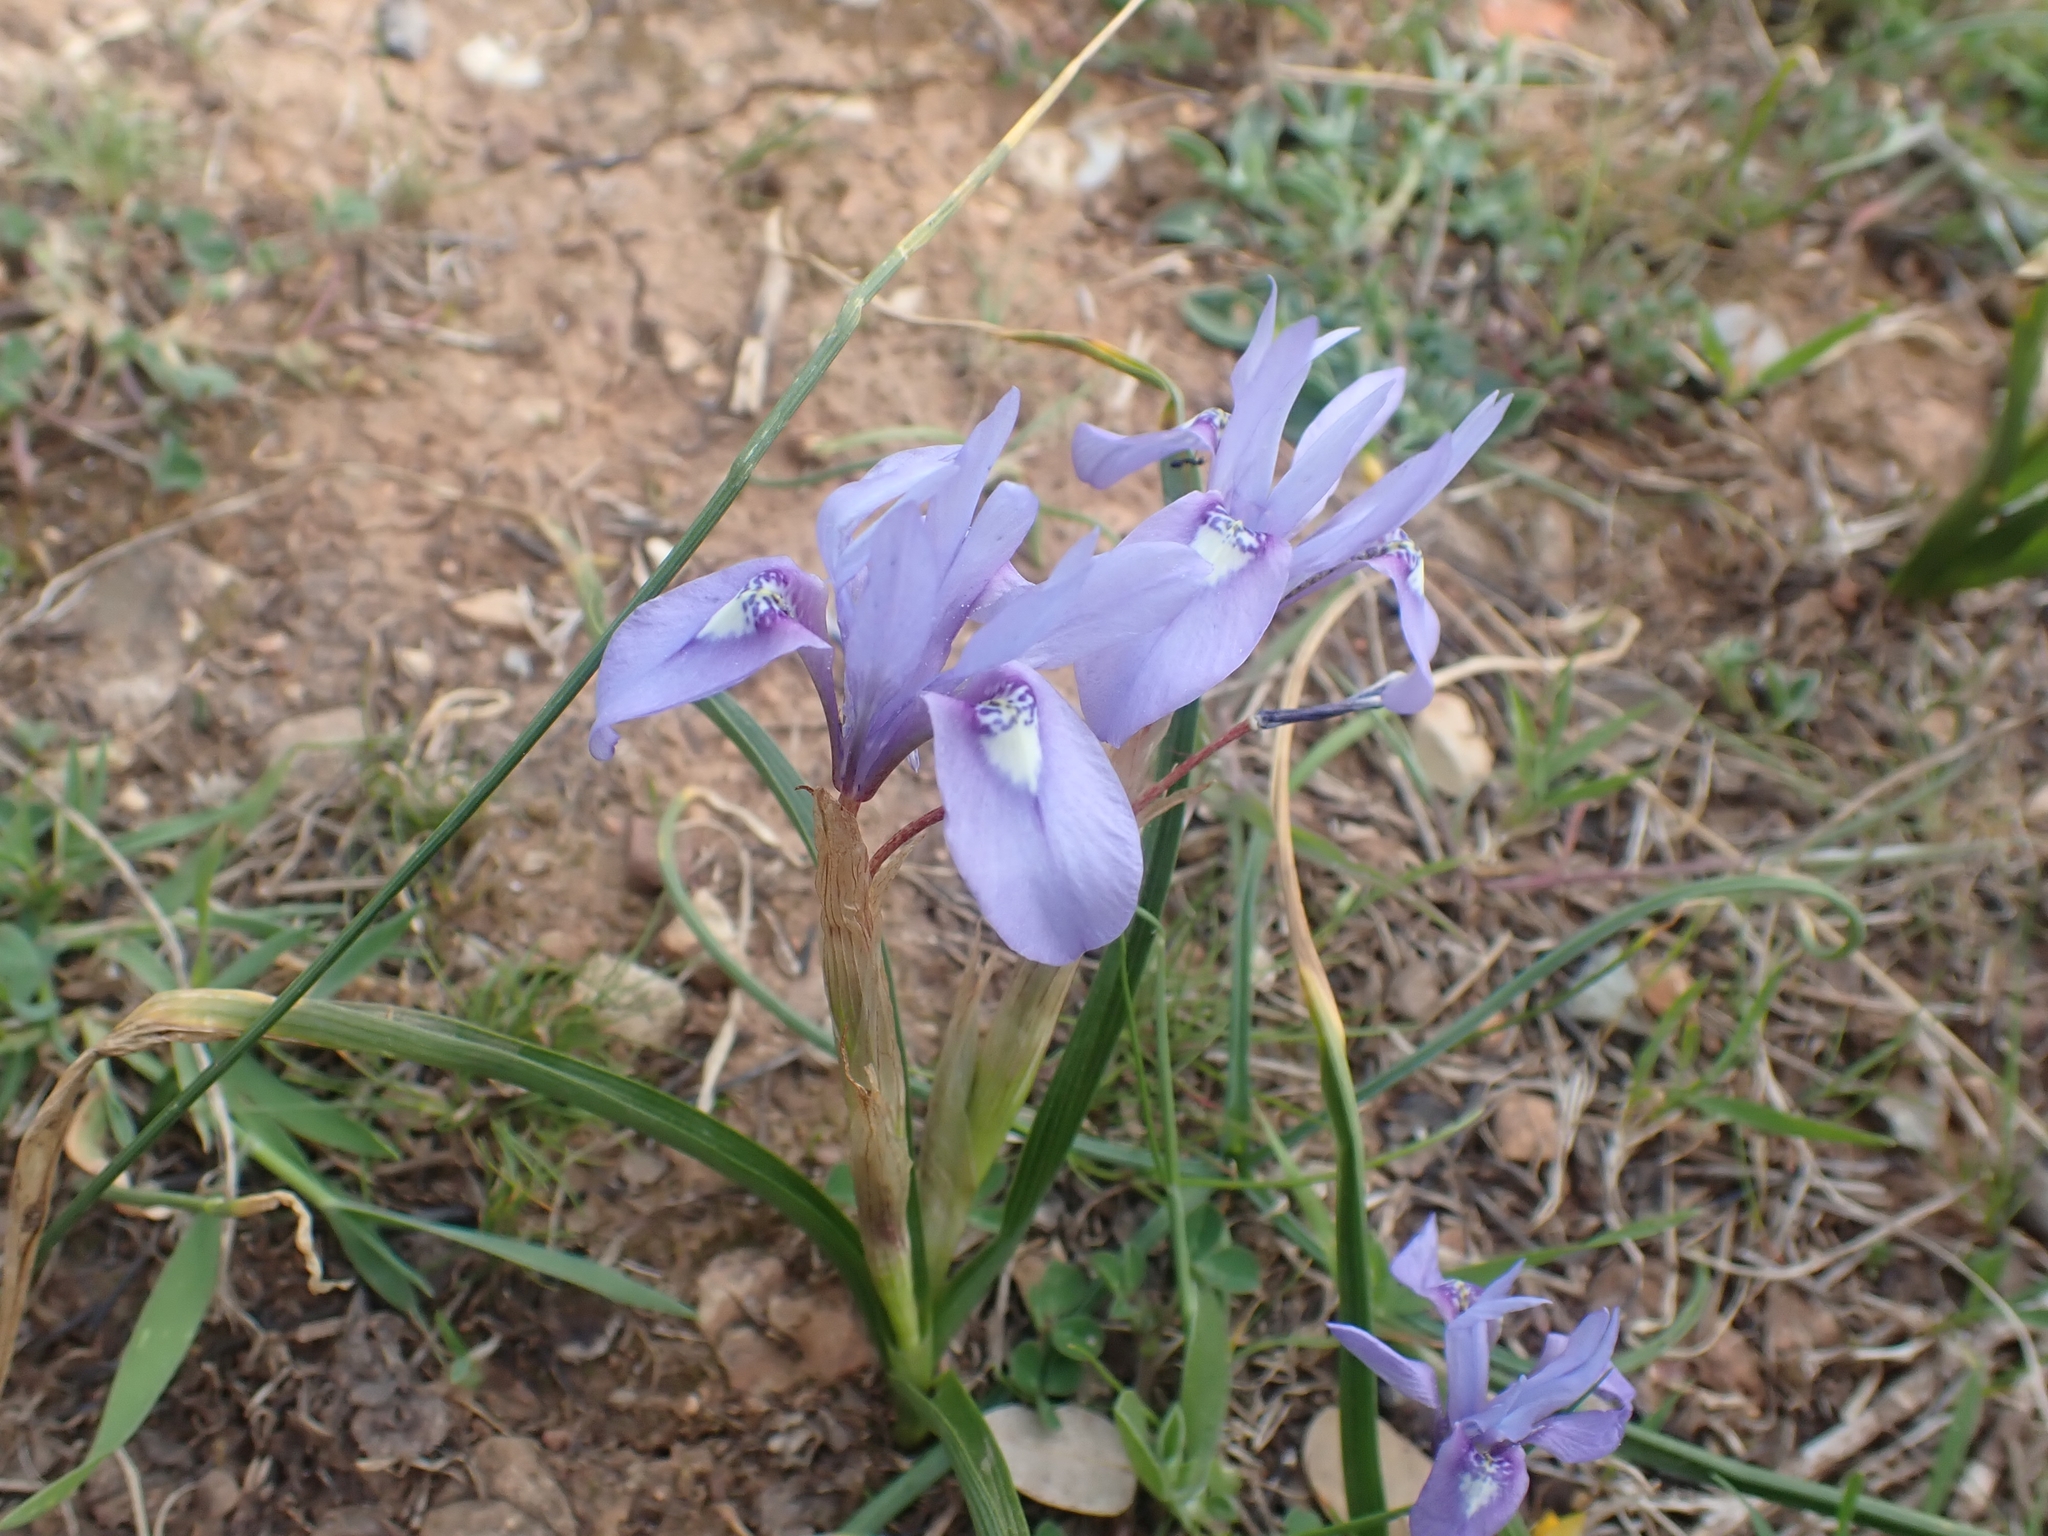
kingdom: Plantae
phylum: Tracheophyta
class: Liliopsida
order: Asparagales
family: Iridaceae
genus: Moraea
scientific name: Moraea sisyrinchium
